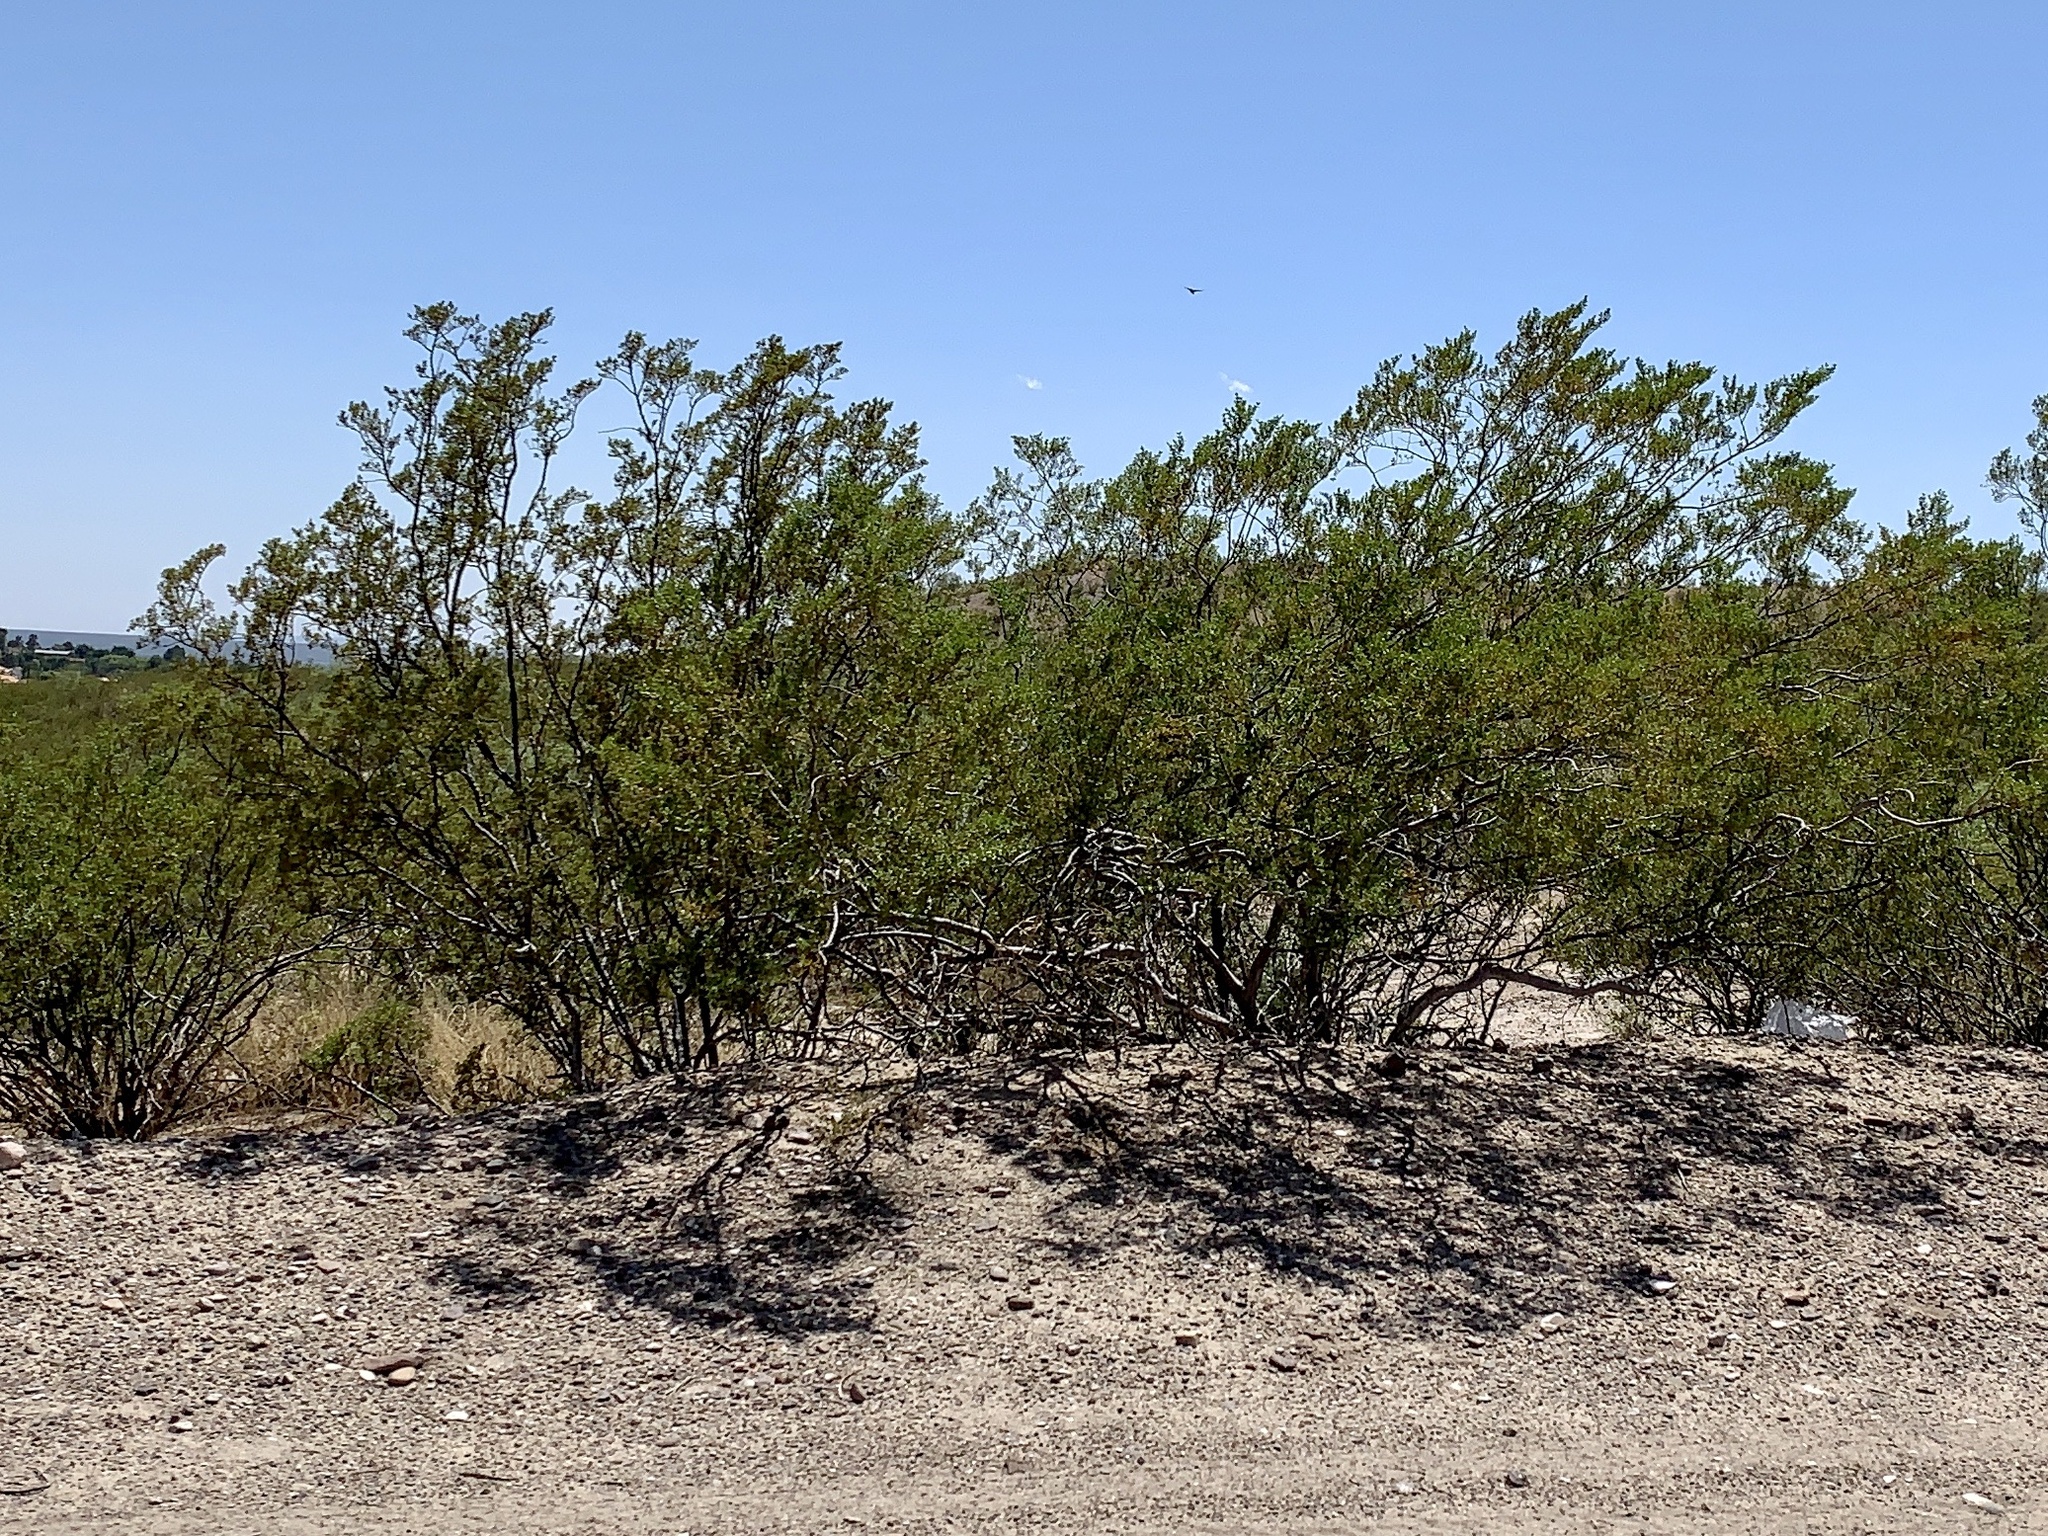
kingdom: Plantae
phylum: Tracheophyta
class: Magnoliopsida
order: Zygophyllales
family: Zygophyllaceae
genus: Larrea
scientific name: Larrea tridentata
